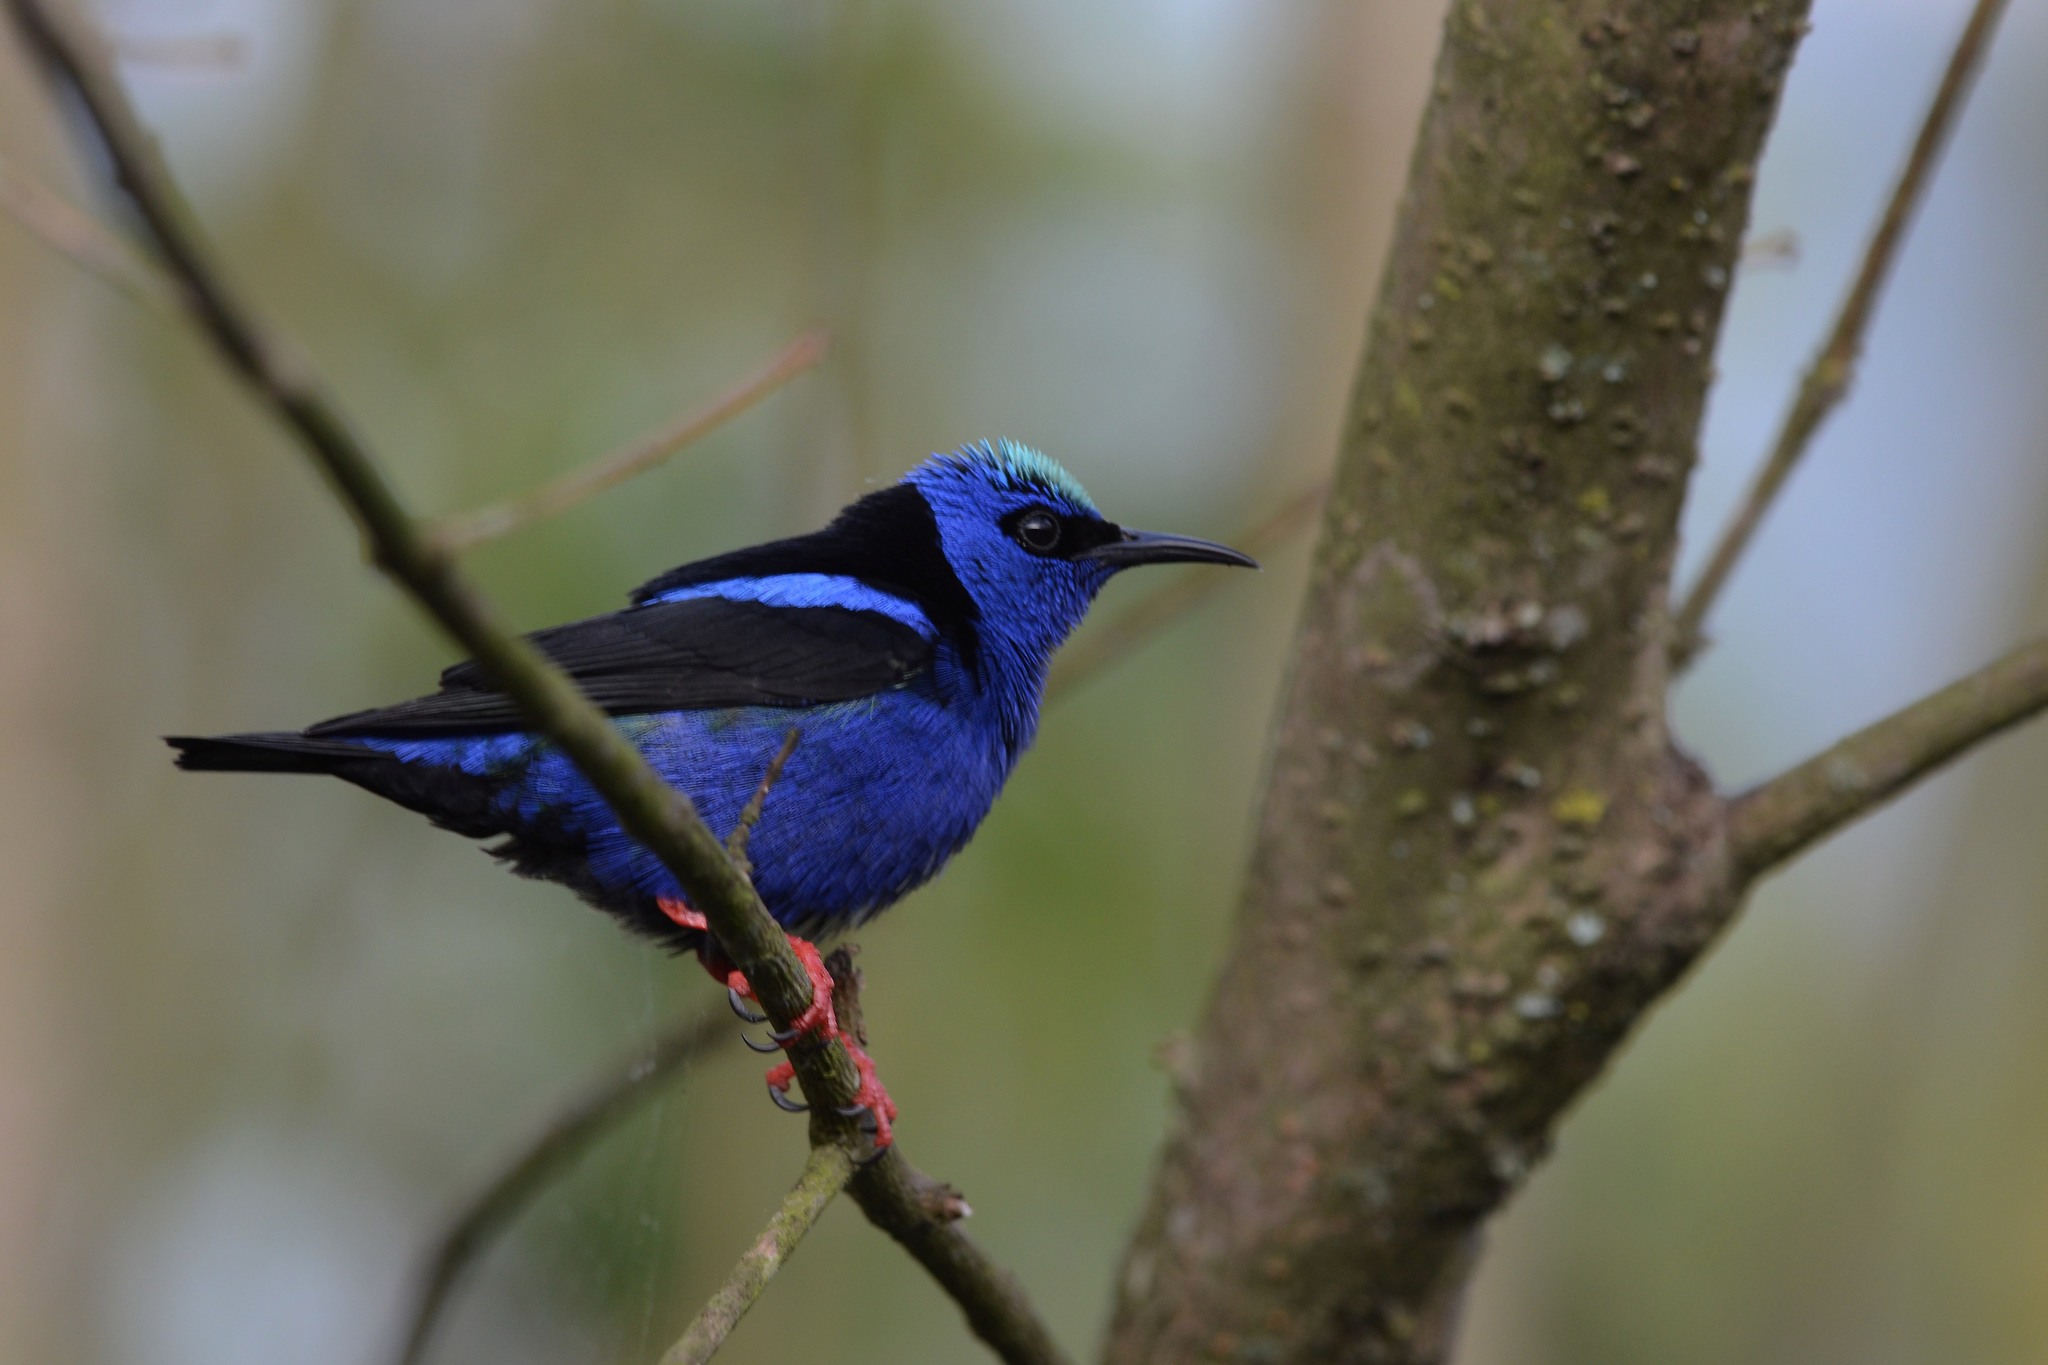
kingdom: Animalia
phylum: Chordata
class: Aves
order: Passeriformes
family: Thraupidae
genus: Cyanerpes
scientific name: Cyanerpes cyaneus
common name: Red-legged honeycreeper
